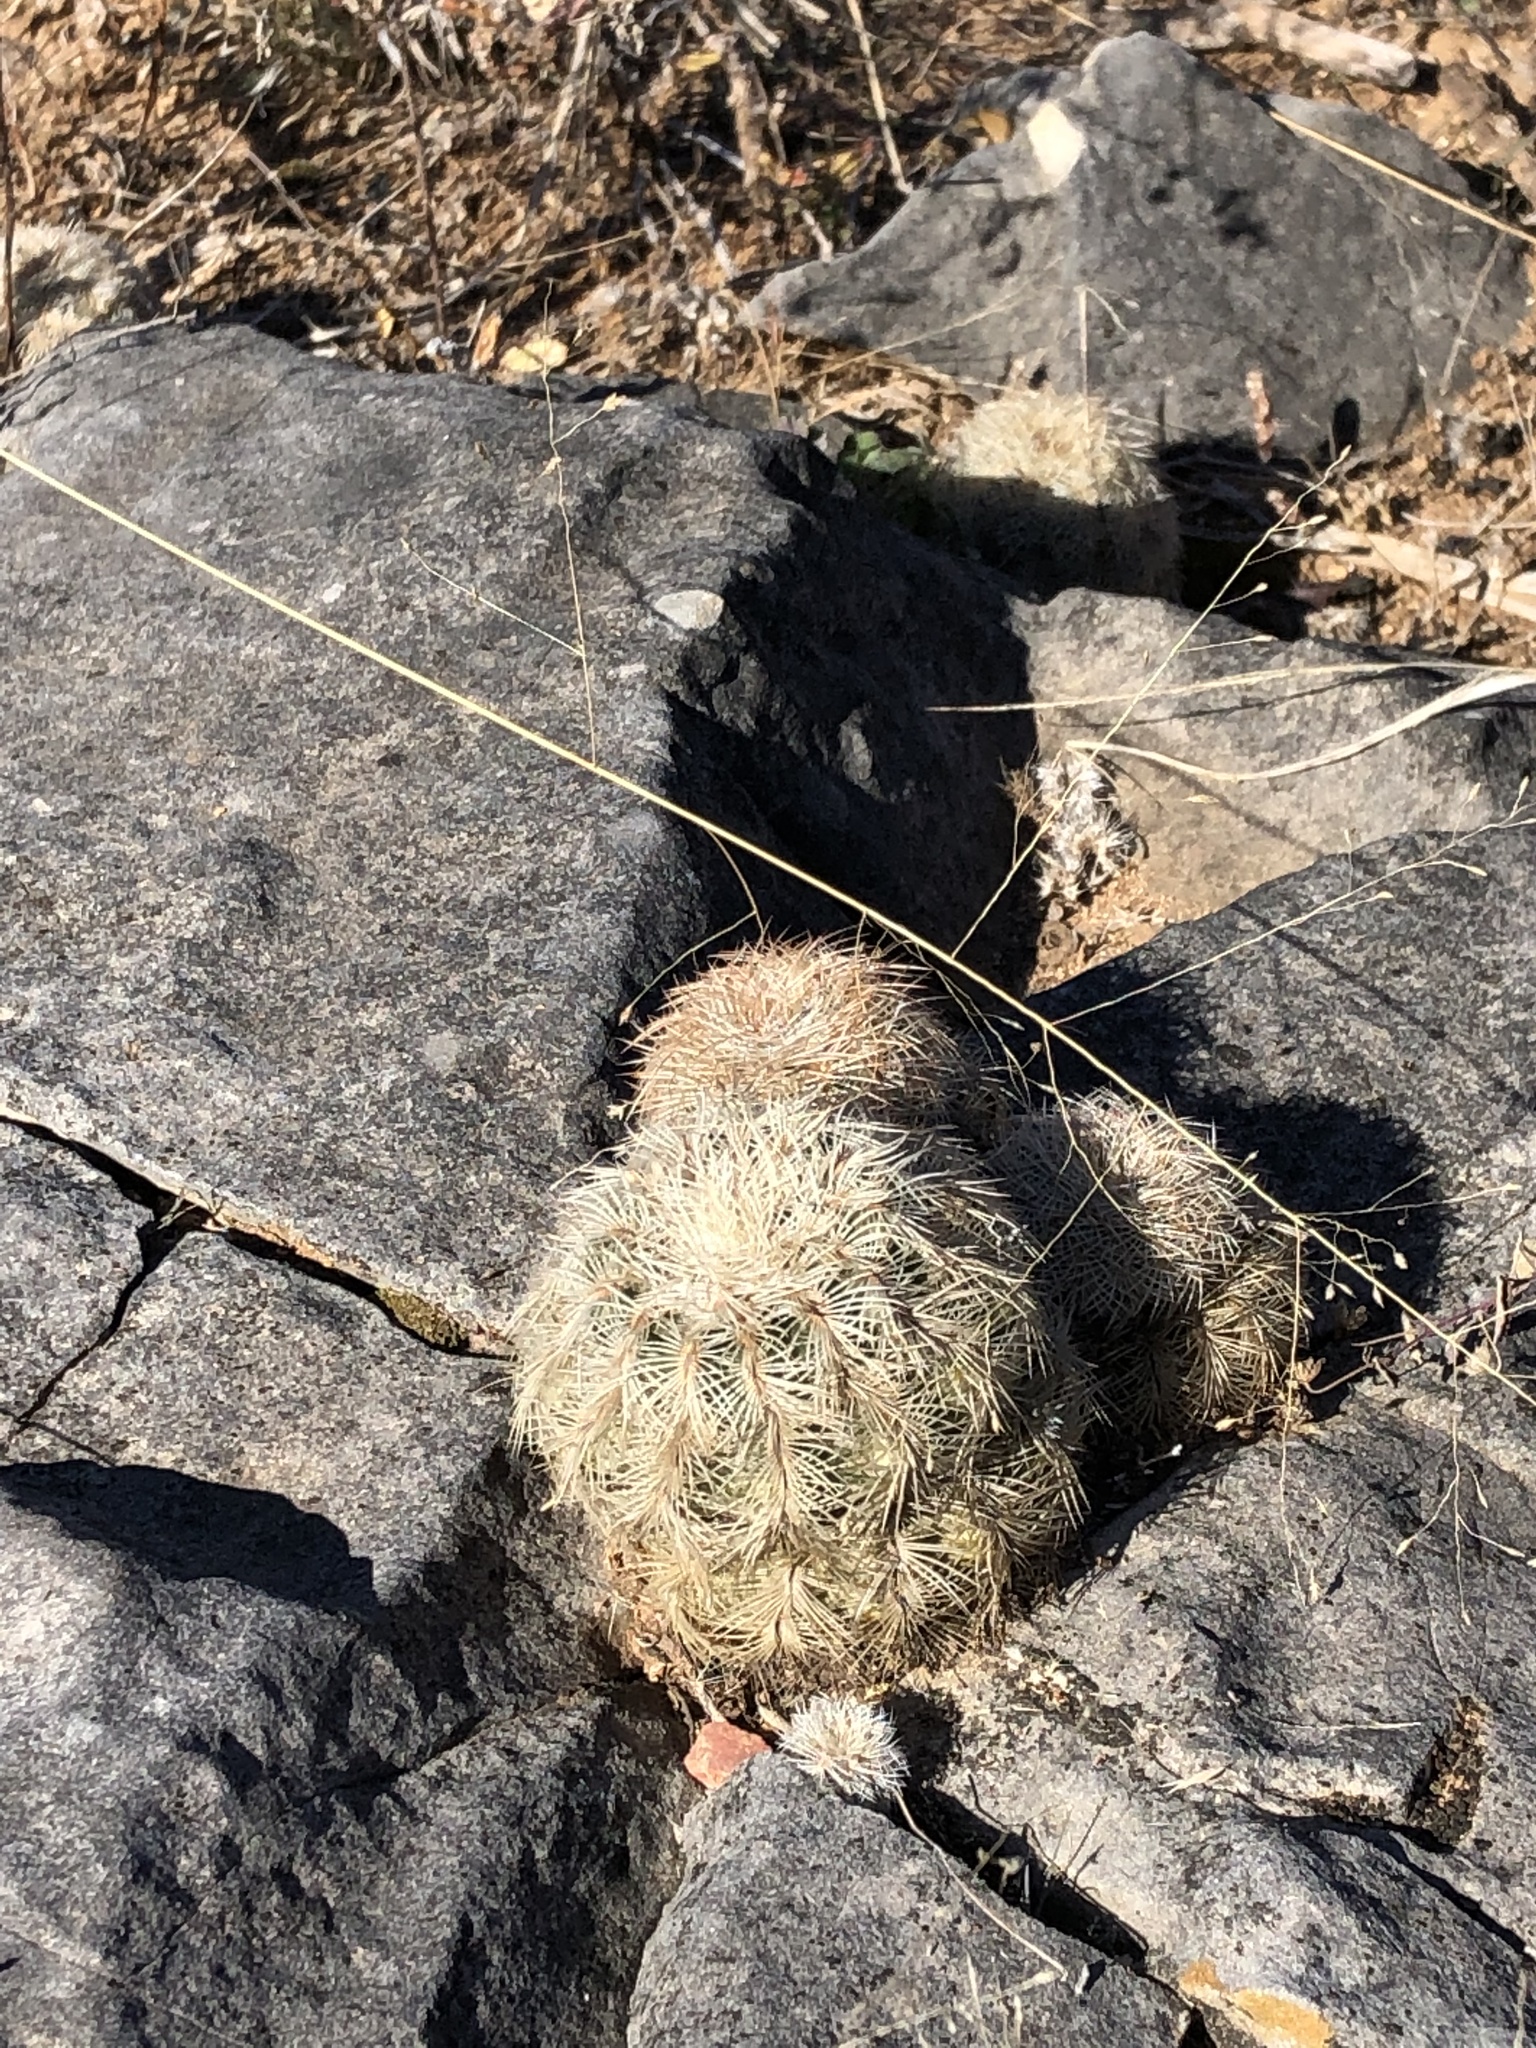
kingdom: Plantae
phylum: Tracheophyta
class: Magnoliopsida
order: Caryophyllales
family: Cactaceae
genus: Echinocereus
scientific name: Echinocereus reichenbachii
